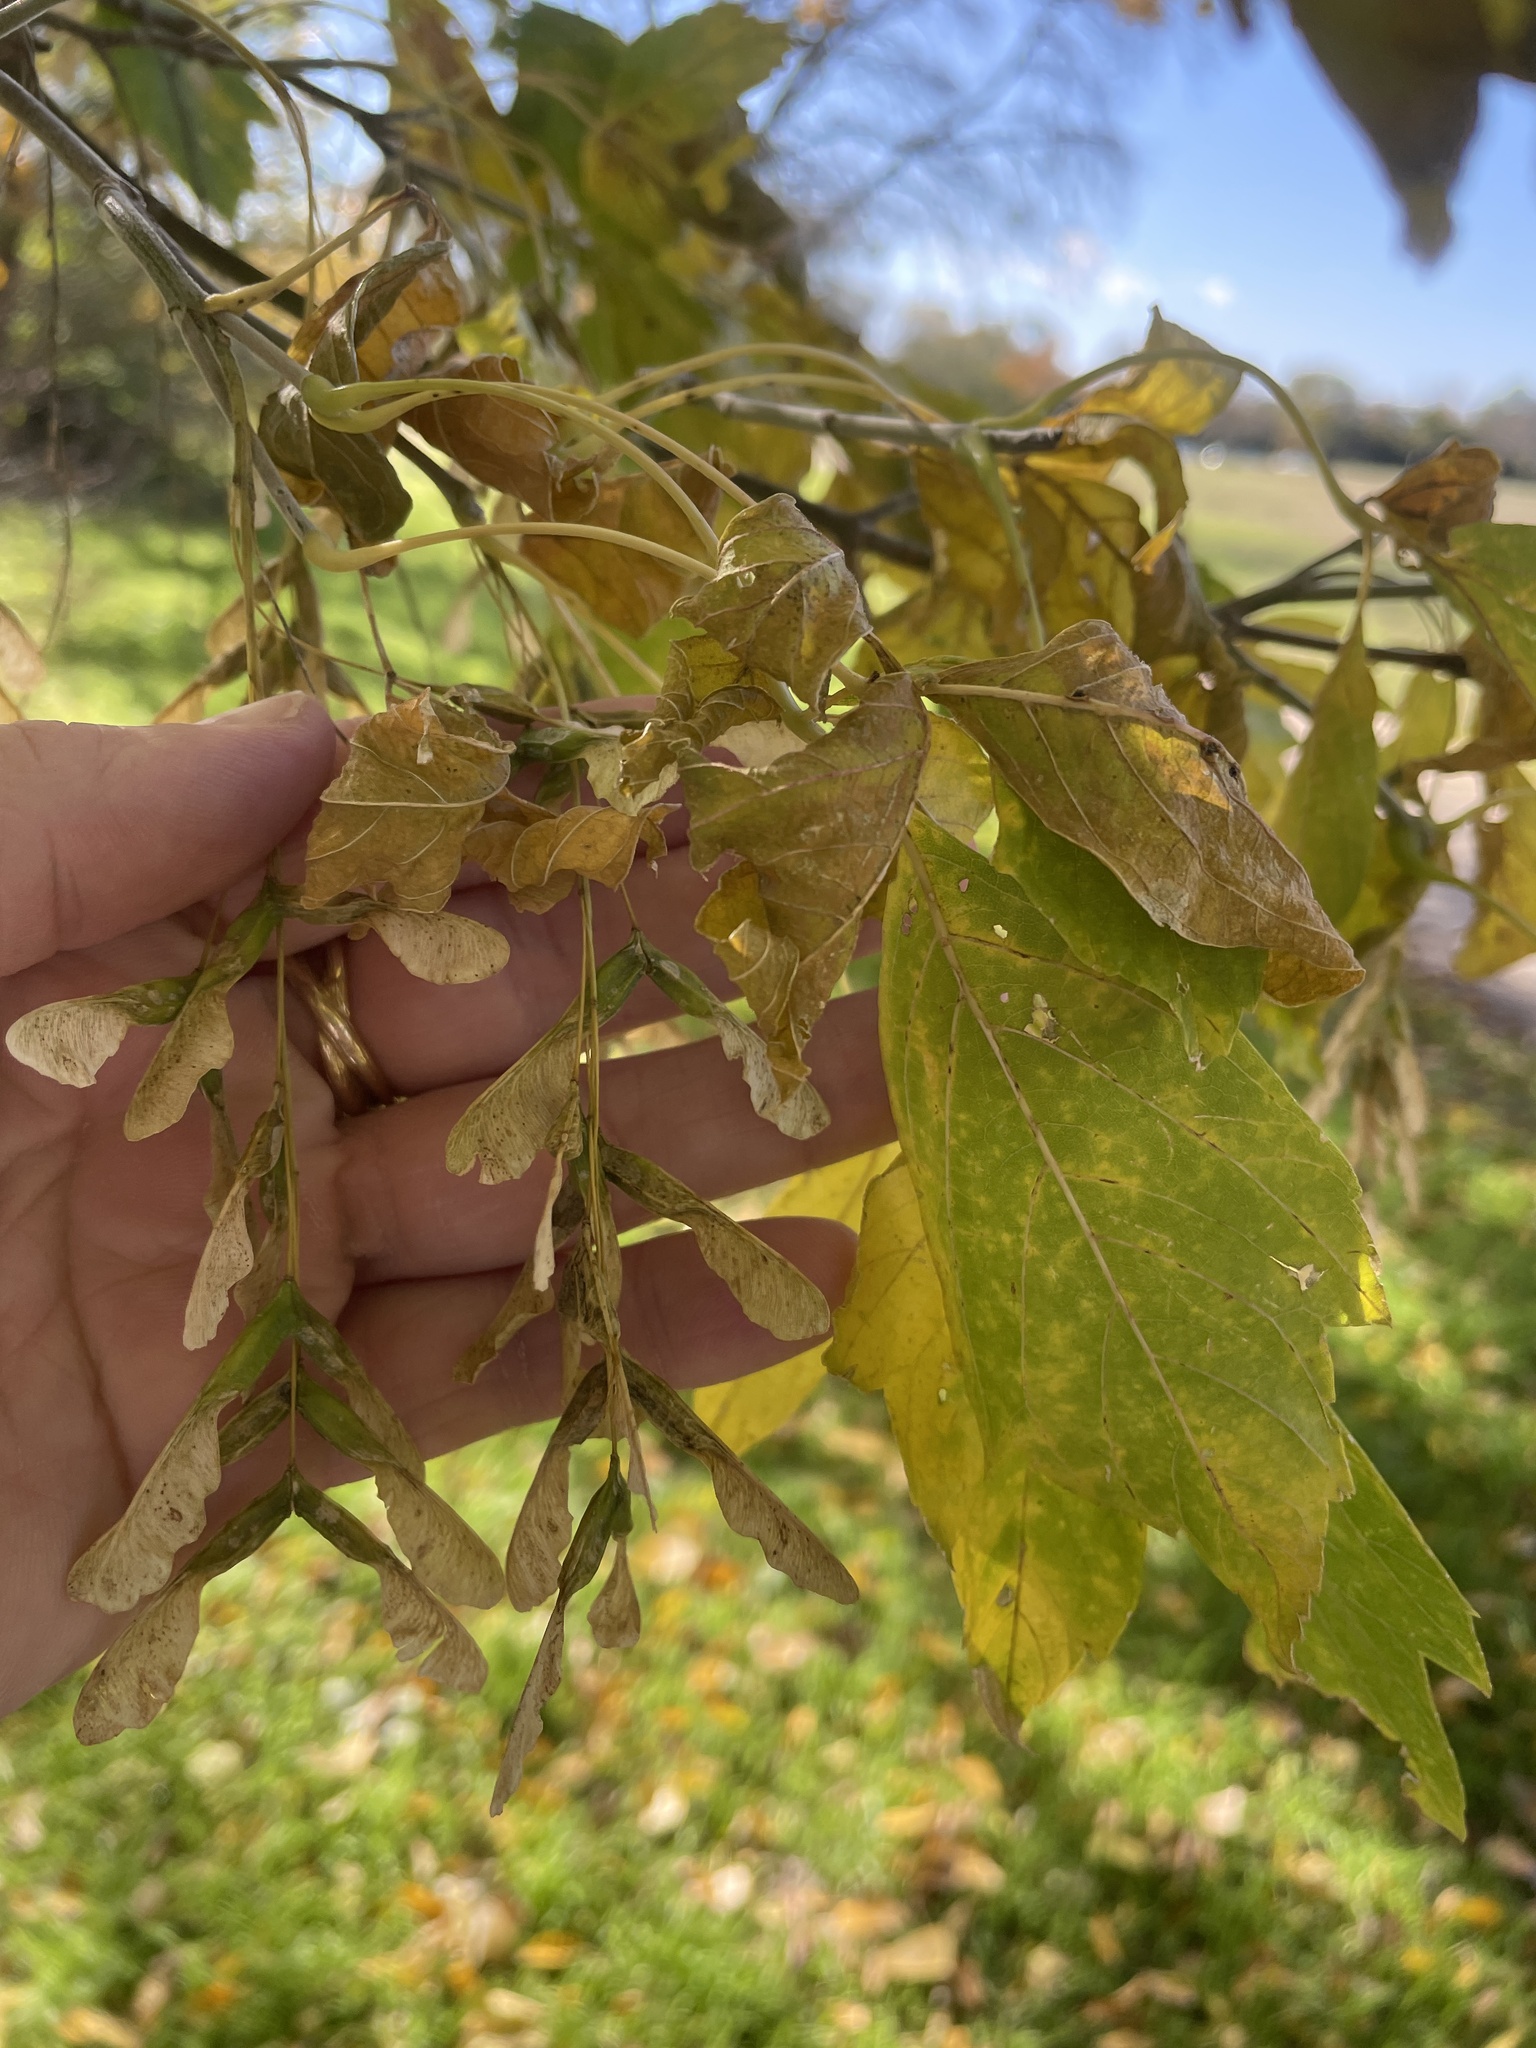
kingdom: Plantae
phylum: Tracheophyta
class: Magnoliopsida
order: Sapindales
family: Sapindaceae
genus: Acer
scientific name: Acer negundo
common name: Ashleaf maple
